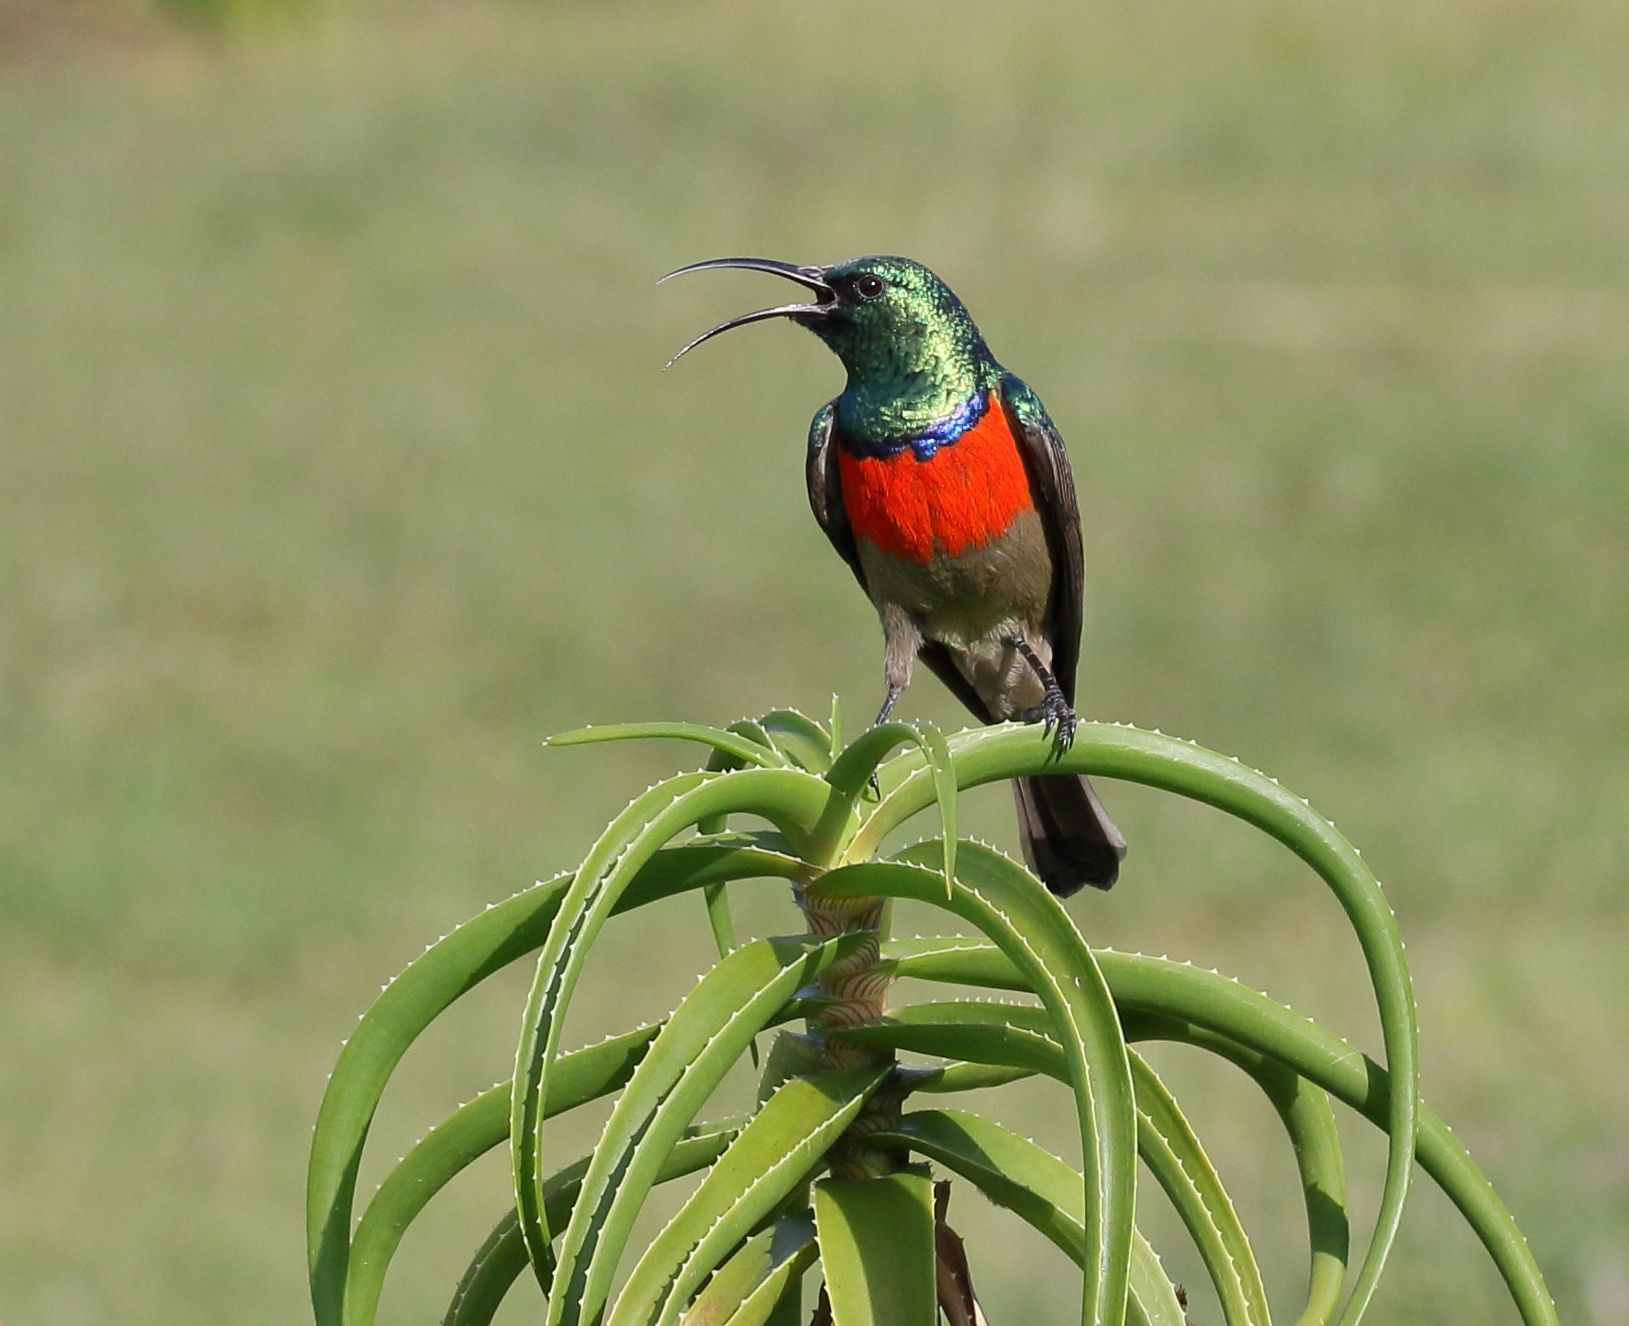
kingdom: Animalia
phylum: Chordata
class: Aves
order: Passeriformes
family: Nectariniidae
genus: Cinnyris
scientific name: Cinnyris afer
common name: Greater double-collared sunbird
